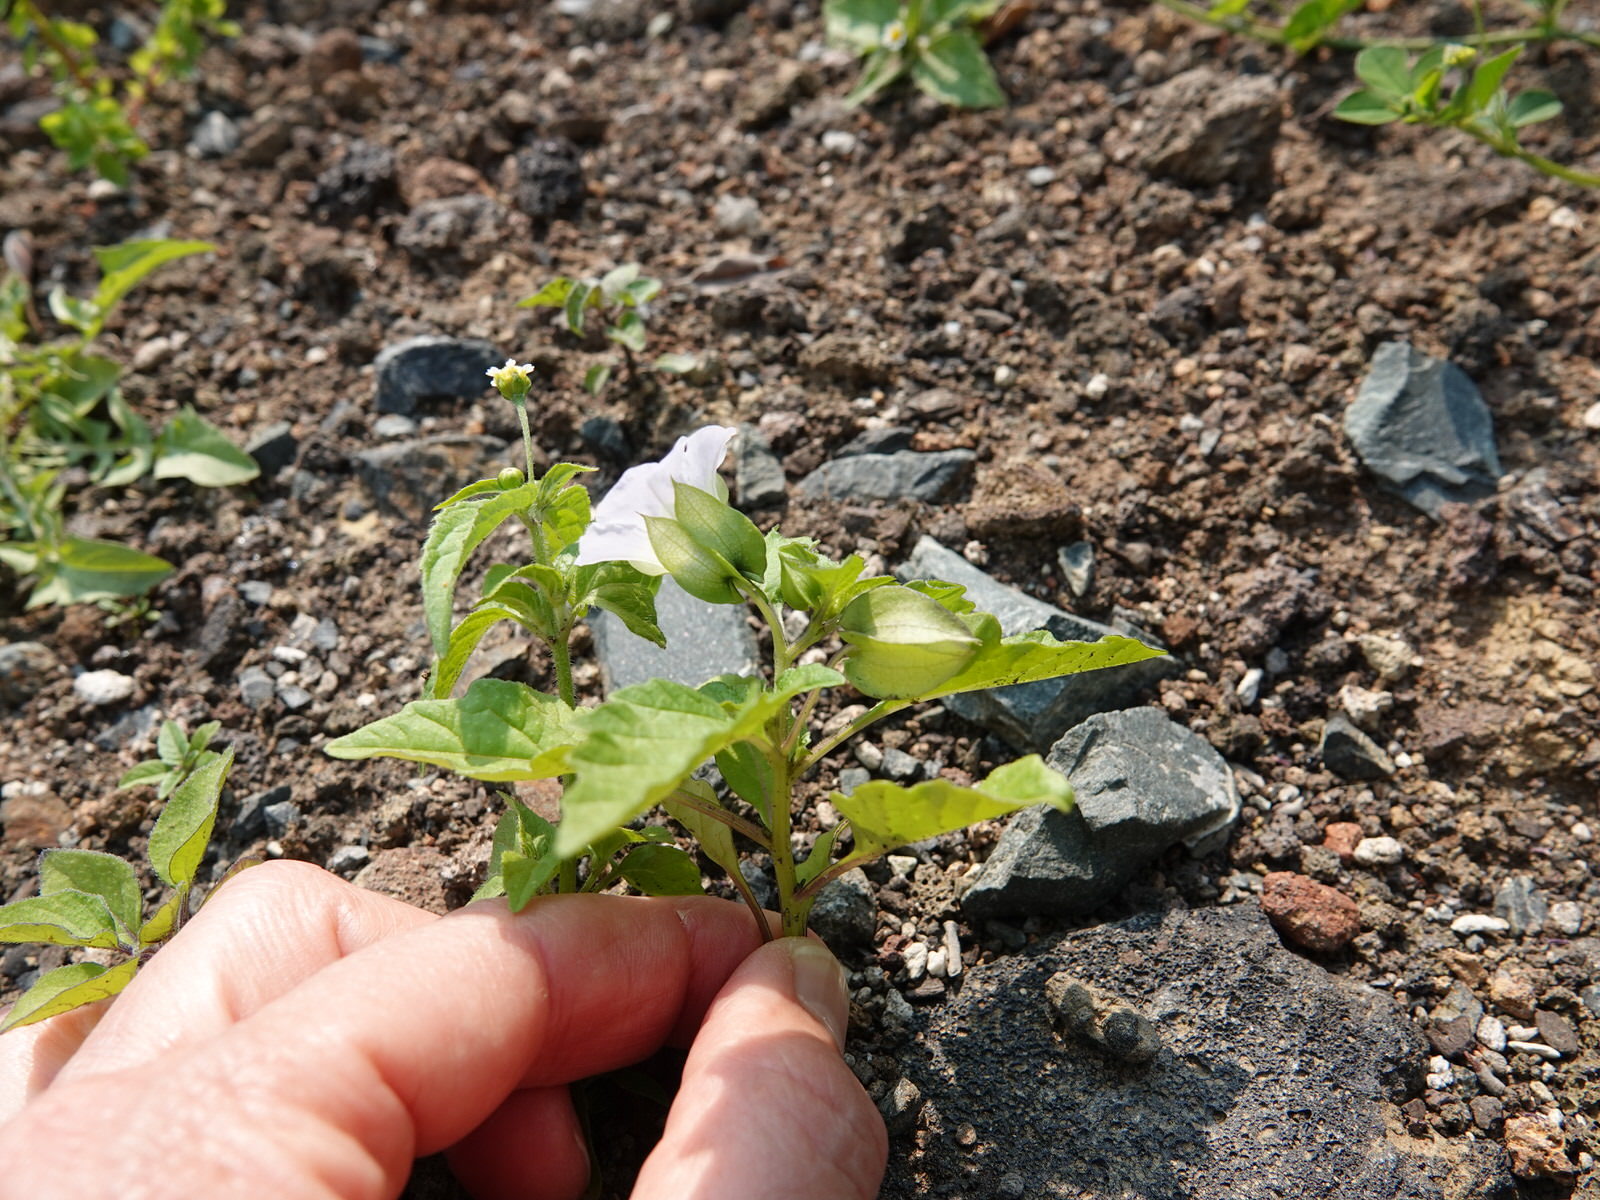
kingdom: Plantae
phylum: Tracheophyta
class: Magnoliopsida
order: Solanales
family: Solanaceae
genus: Nicandra
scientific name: Nicandra physalodes
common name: Apple-of-peru
